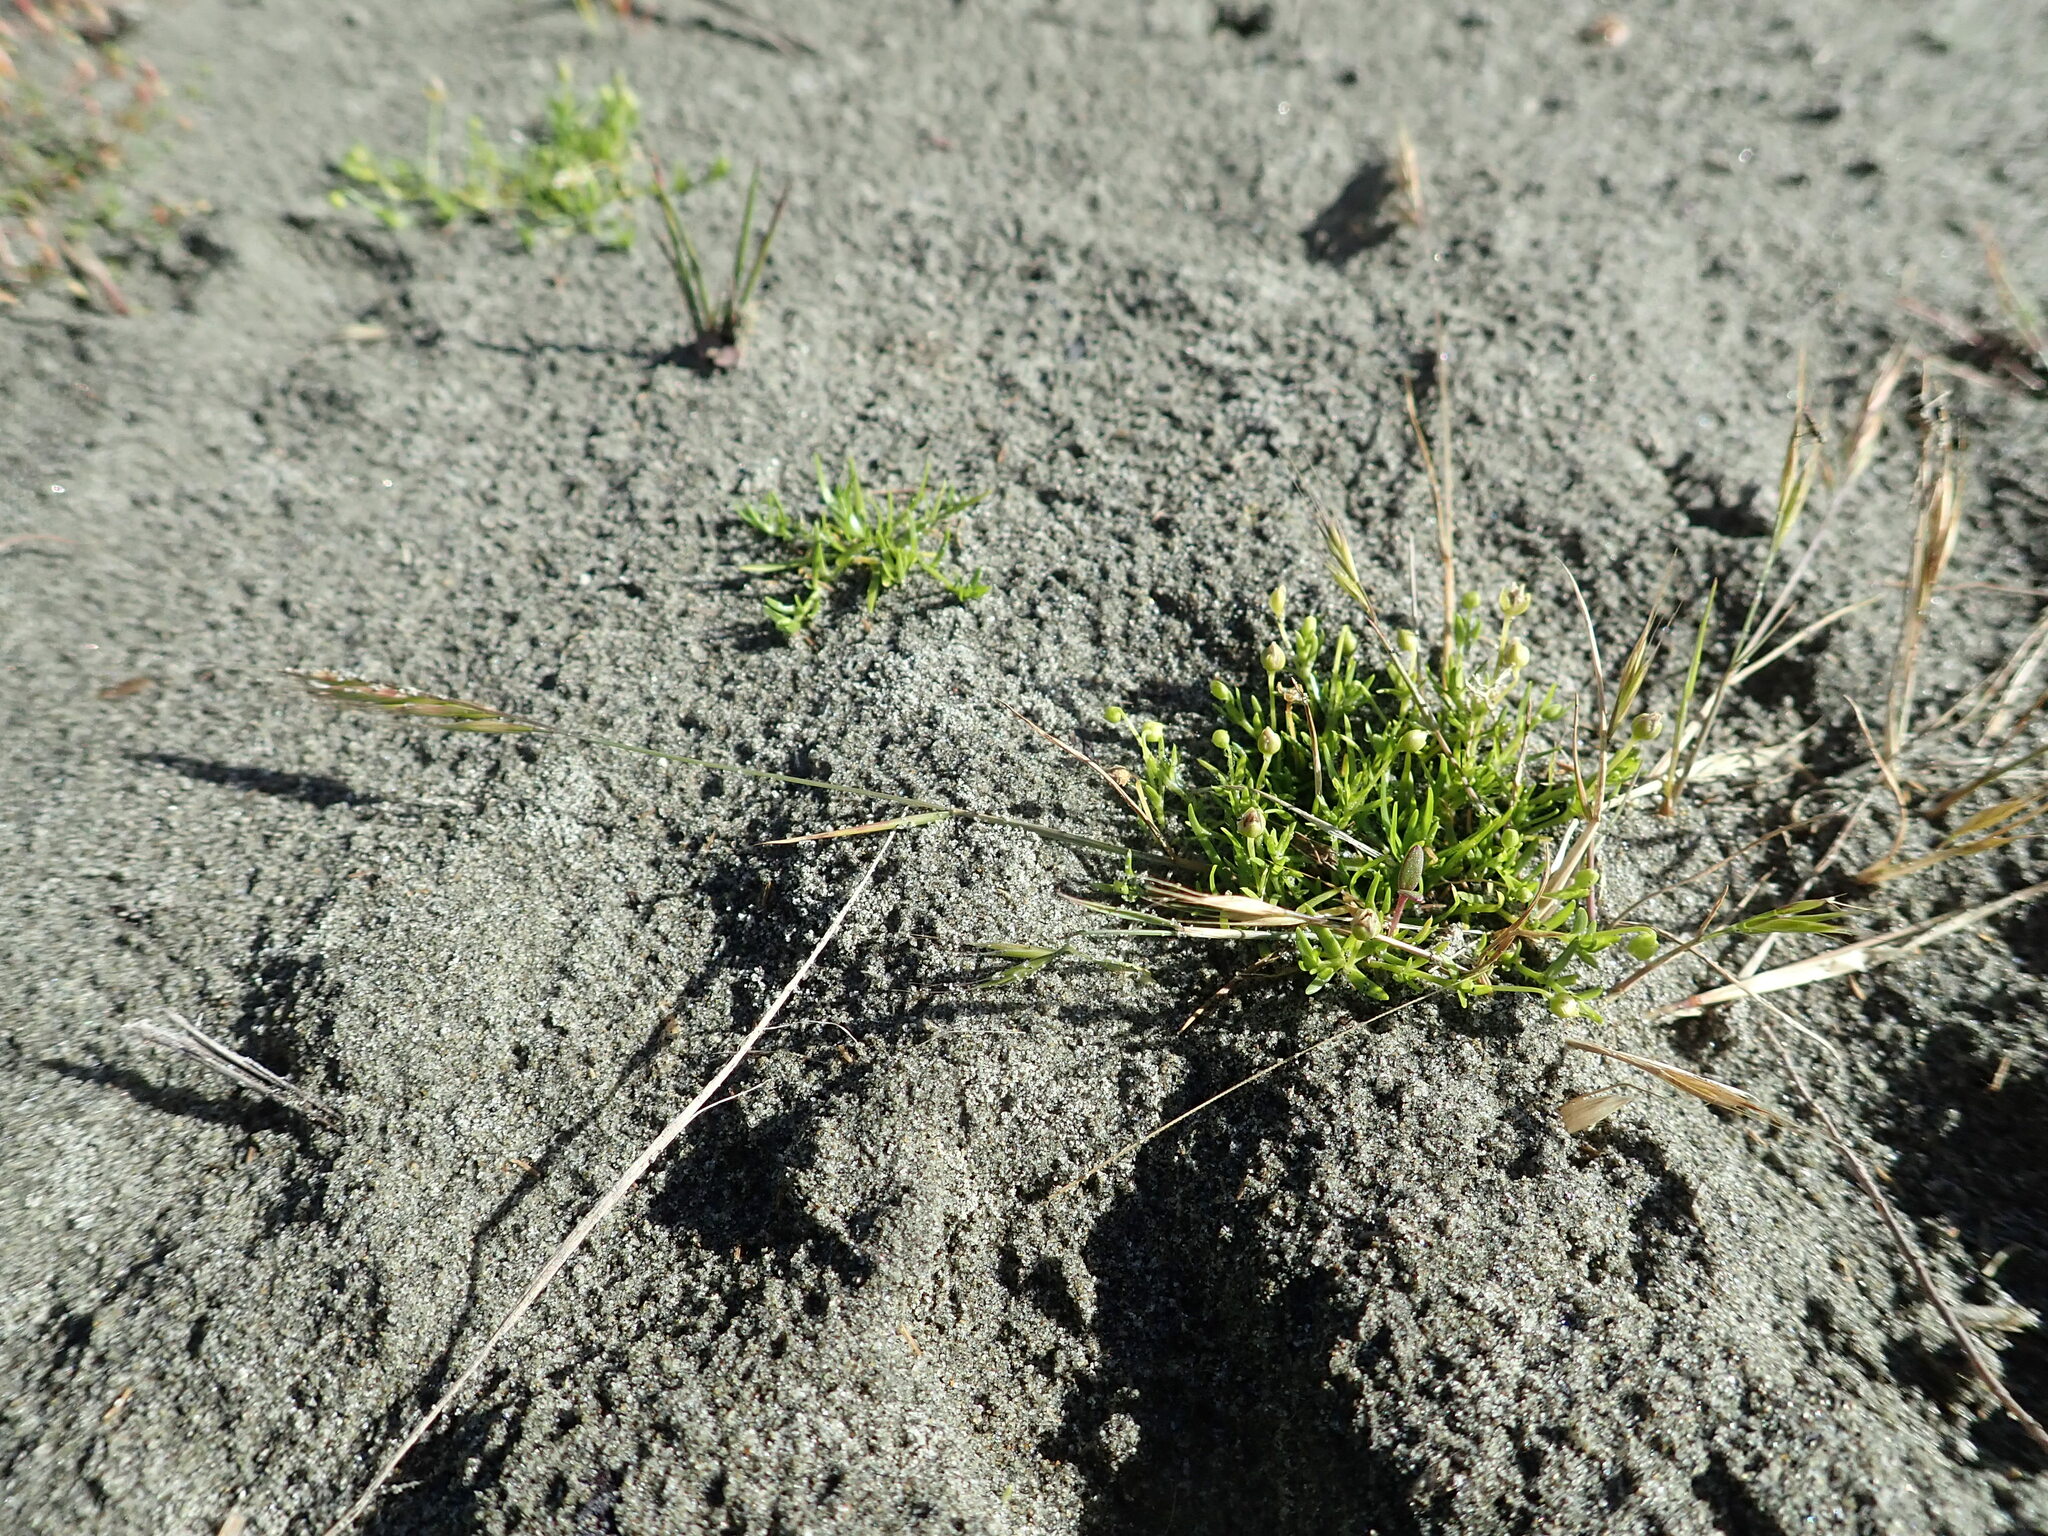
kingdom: Plantae
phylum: Tracheophyta
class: Magnoliopsida
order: Caryophyllales
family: Caryophyllaceae
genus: Sagina
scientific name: Sagina procumbens
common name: Procumbent pearlwort
